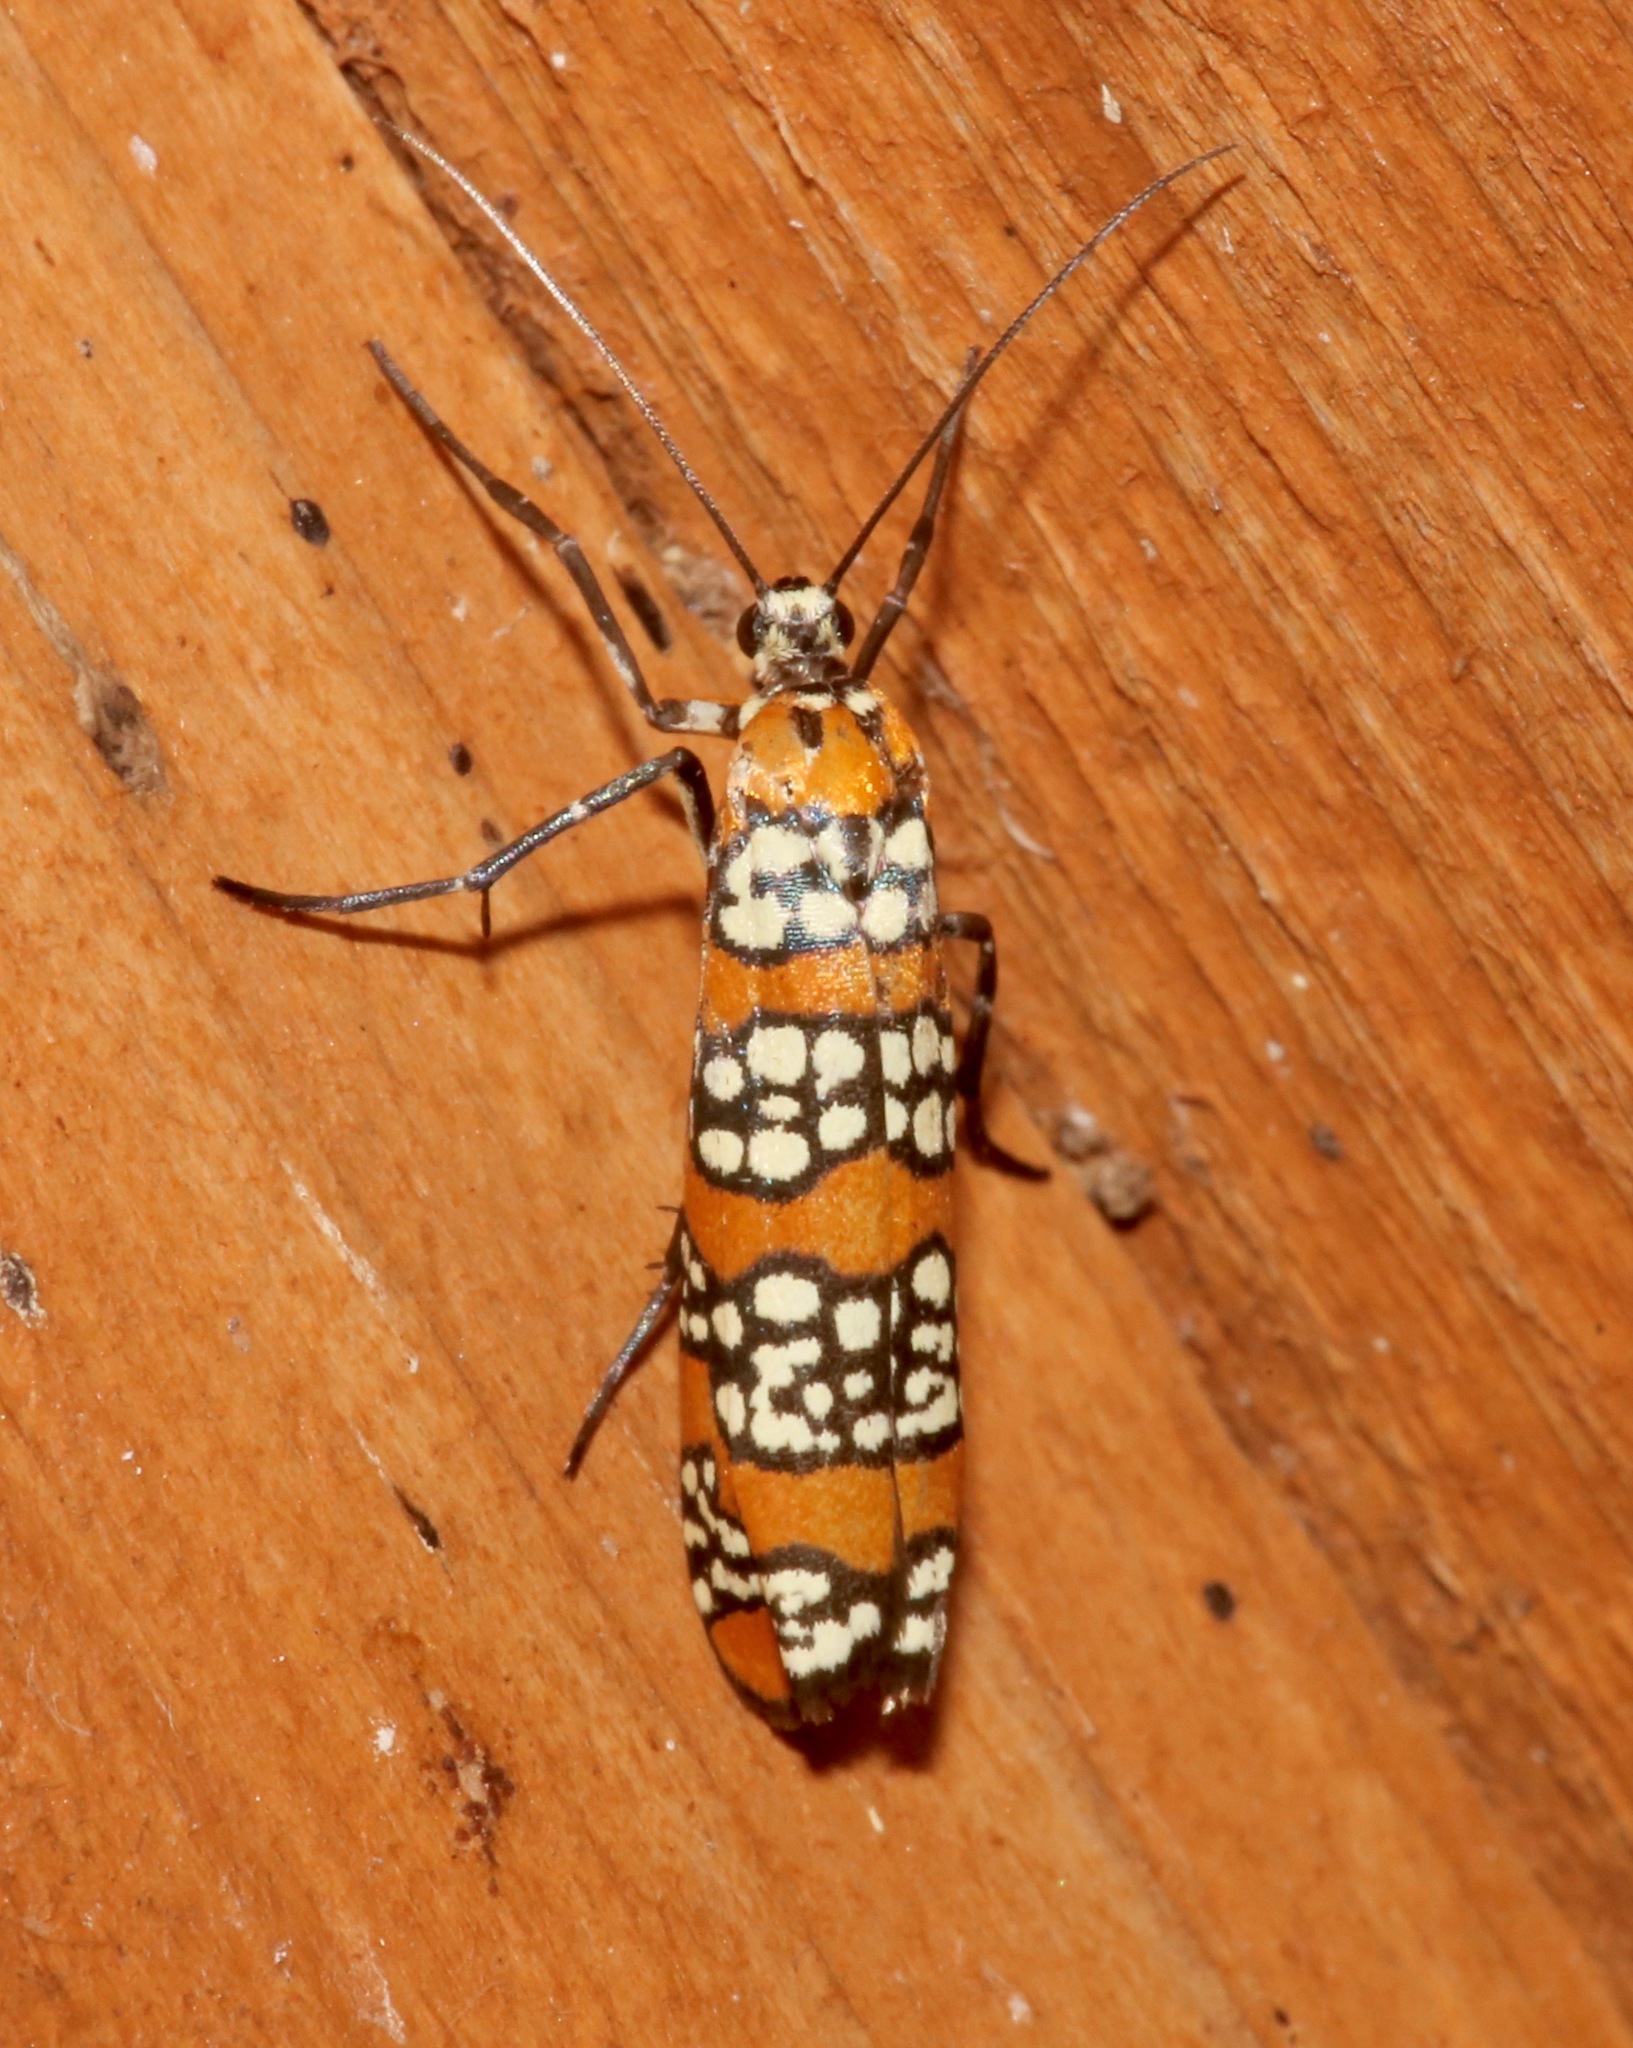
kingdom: Animalia
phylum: Arthropoda
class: Insecta
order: Lepidoptera
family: Attevidae
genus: Atteva
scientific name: Atteva punctella
